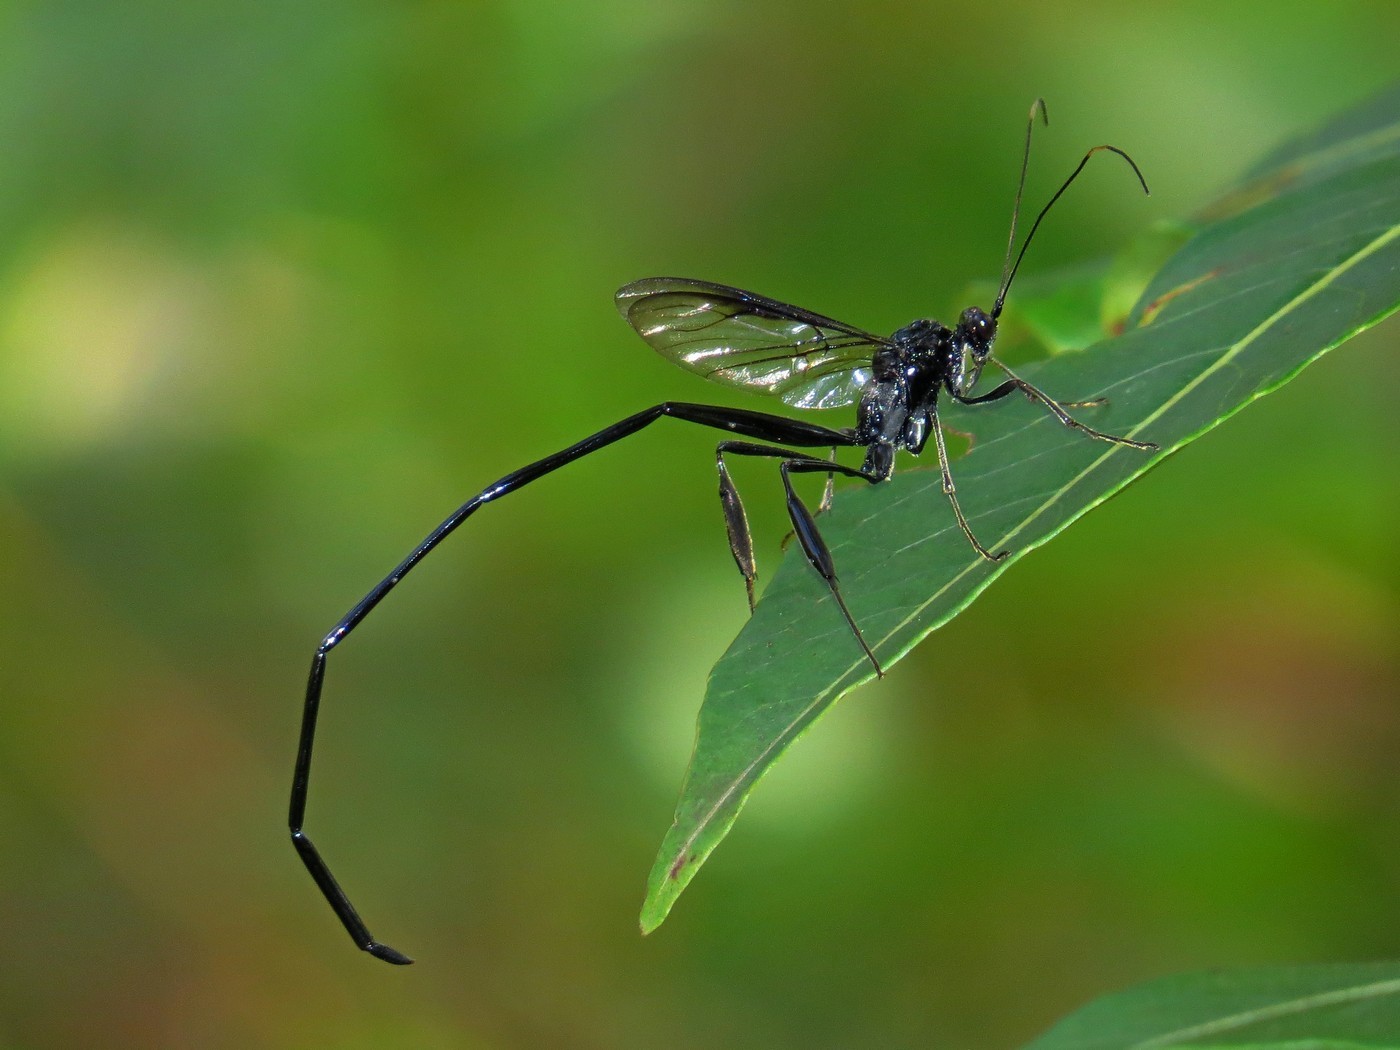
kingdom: Animalia
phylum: Arthropoda
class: Insecta
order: Hymenoptera
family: Pelecinidae
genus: Pelecinus
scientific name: Pelecinus polyturator
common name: American pelecinid wasp
